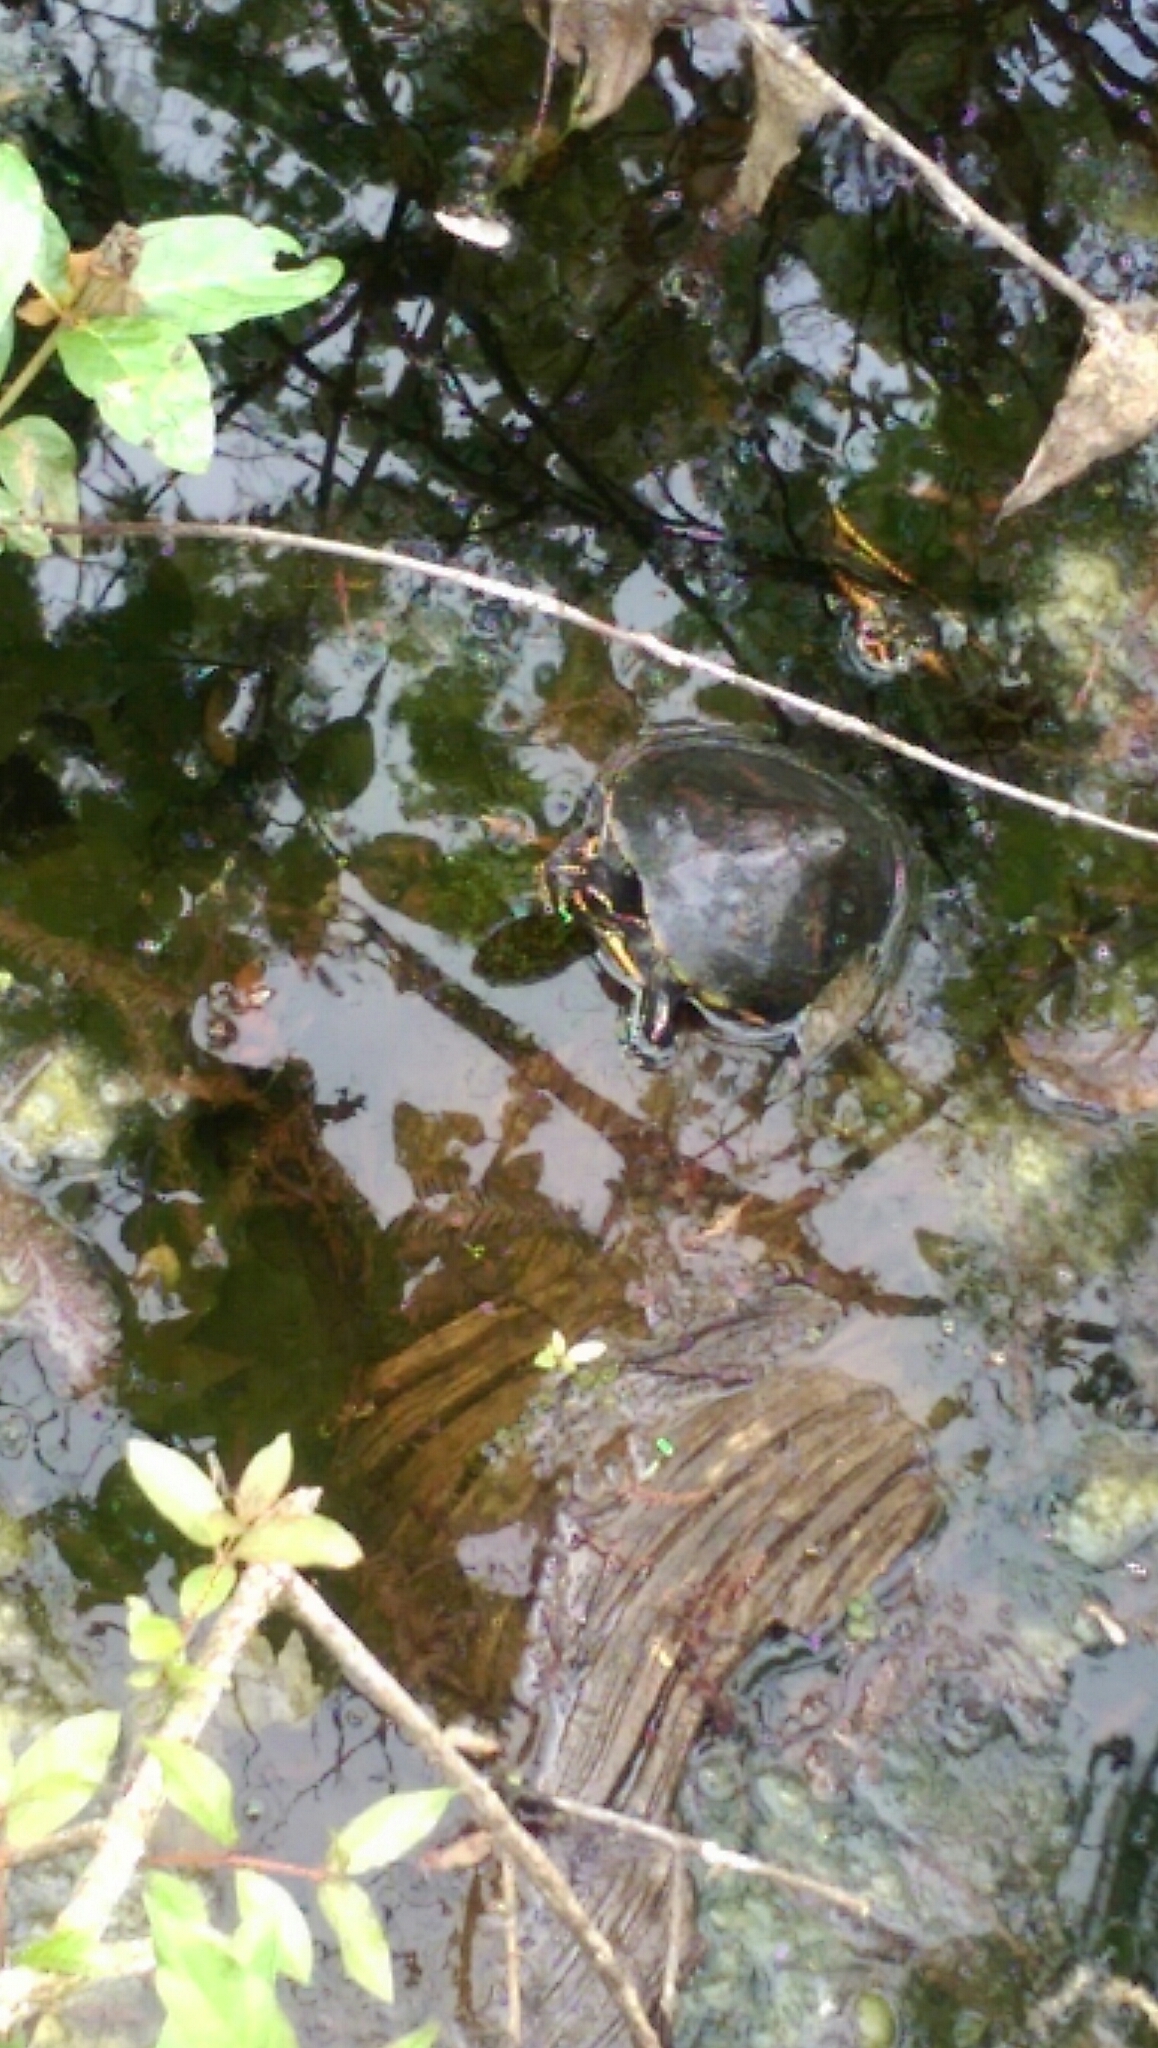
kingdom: Animalia
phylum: Chordata
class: Testudines
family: Emydidae
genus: Trachemys
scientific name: Trachemys scripta
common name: Slider
